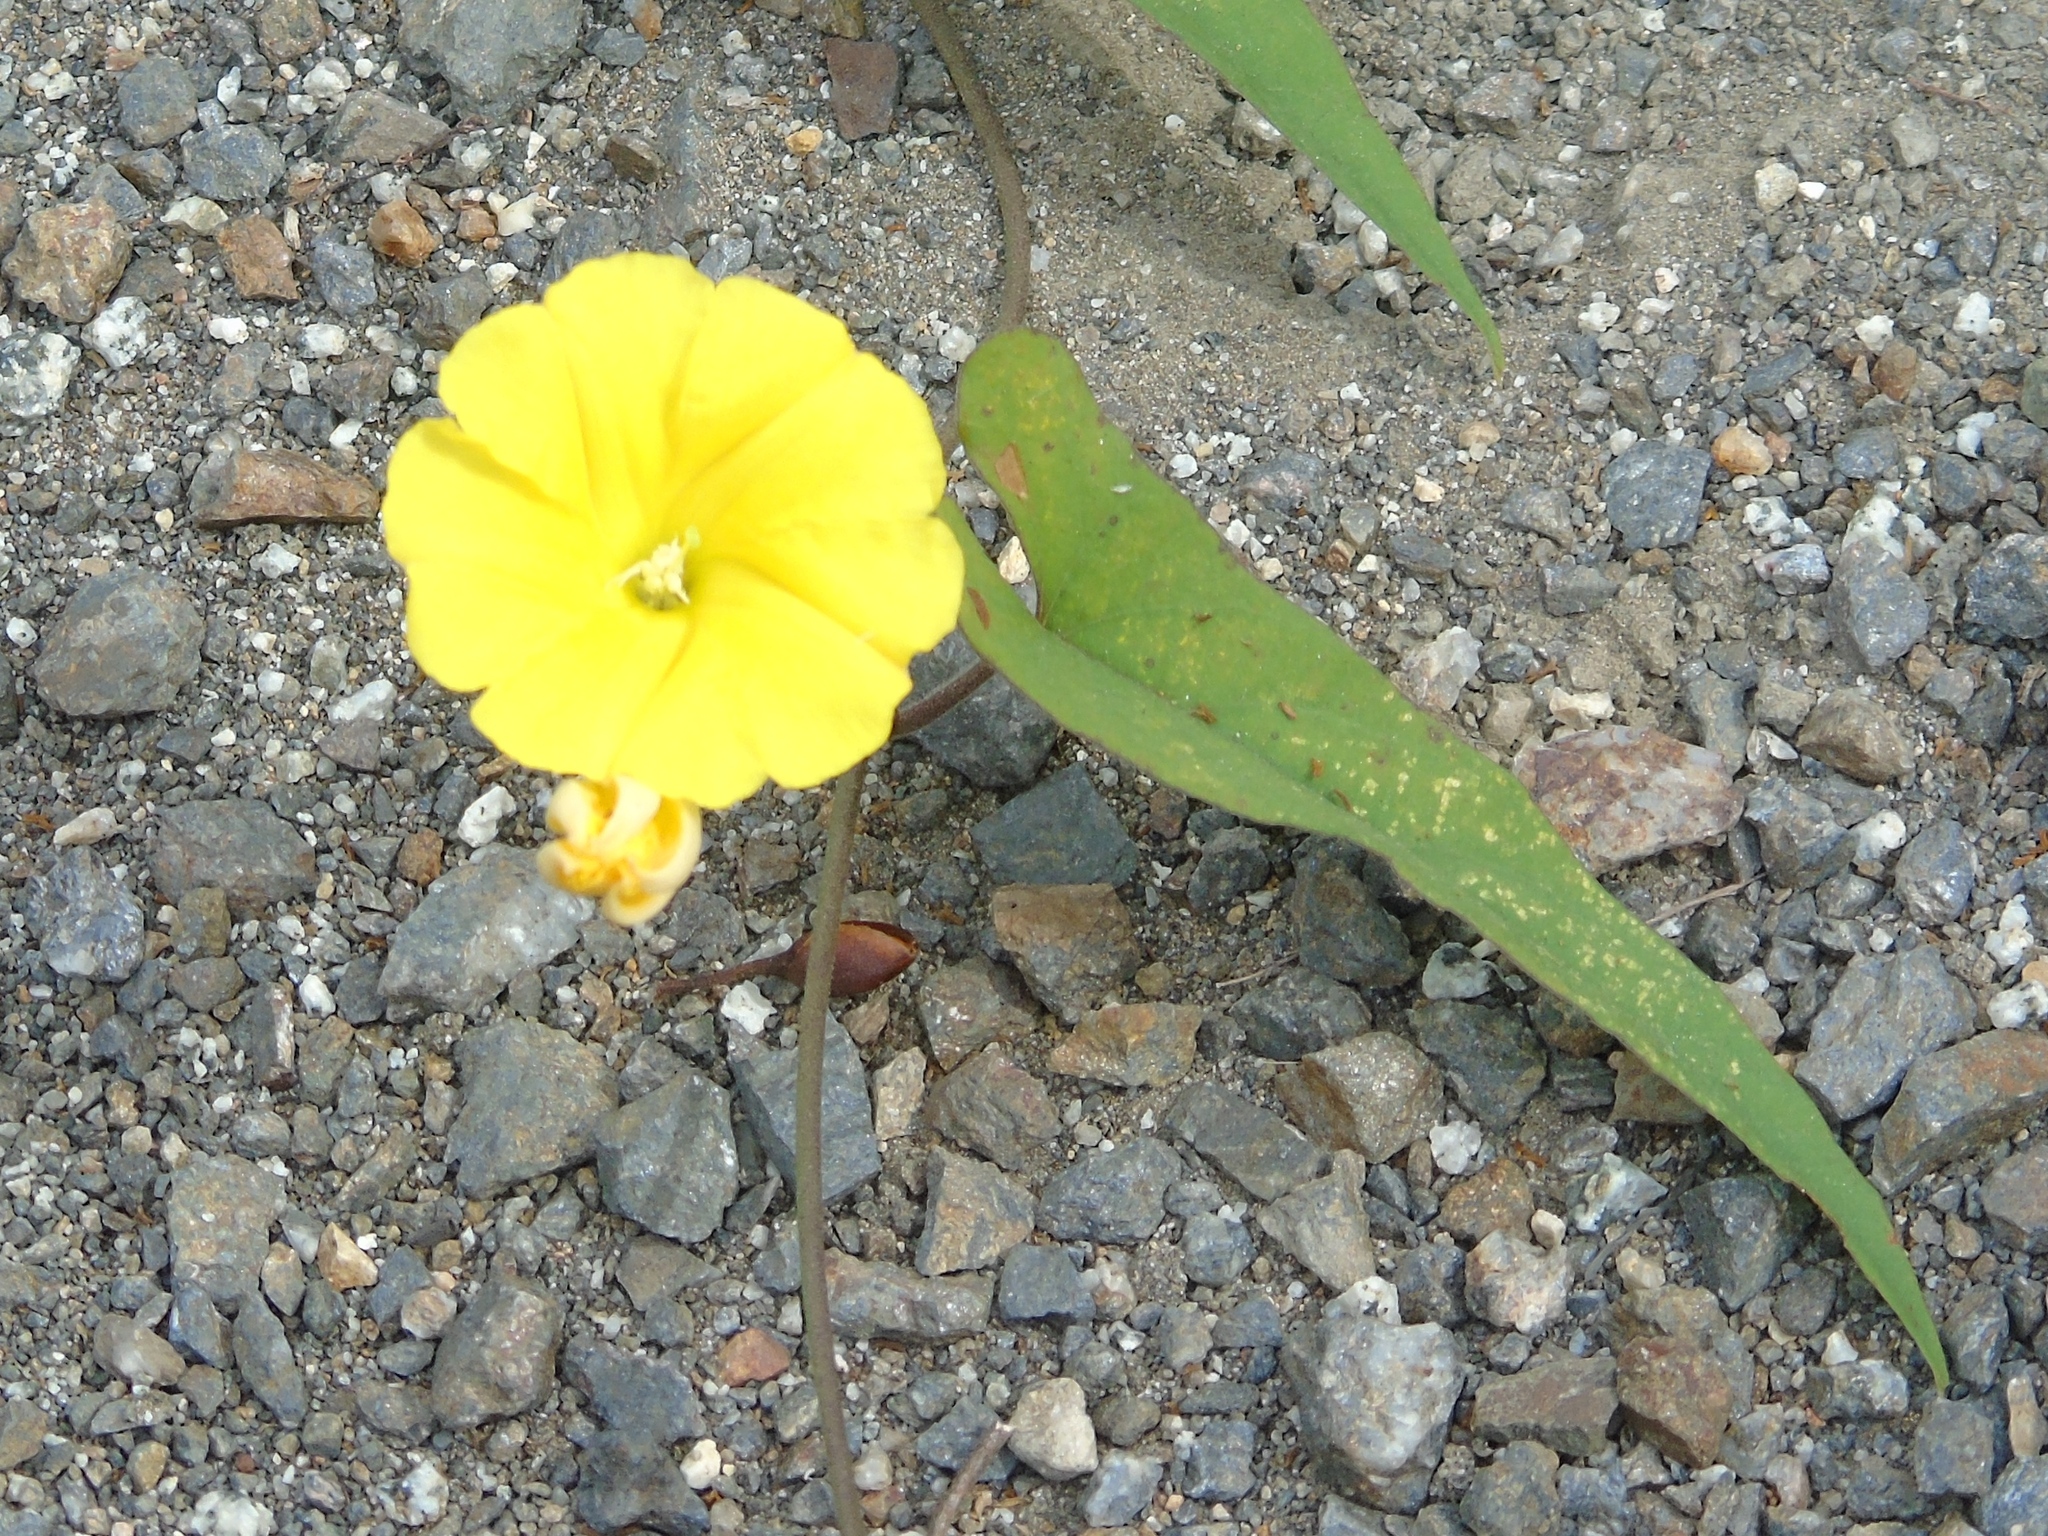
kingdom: Plantae
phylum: Tracheophyta
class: Magnoliopsida
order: Solanales
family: Convolvulaceae
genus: Camonea
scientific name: Camonea umbellata
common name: Hogvine
